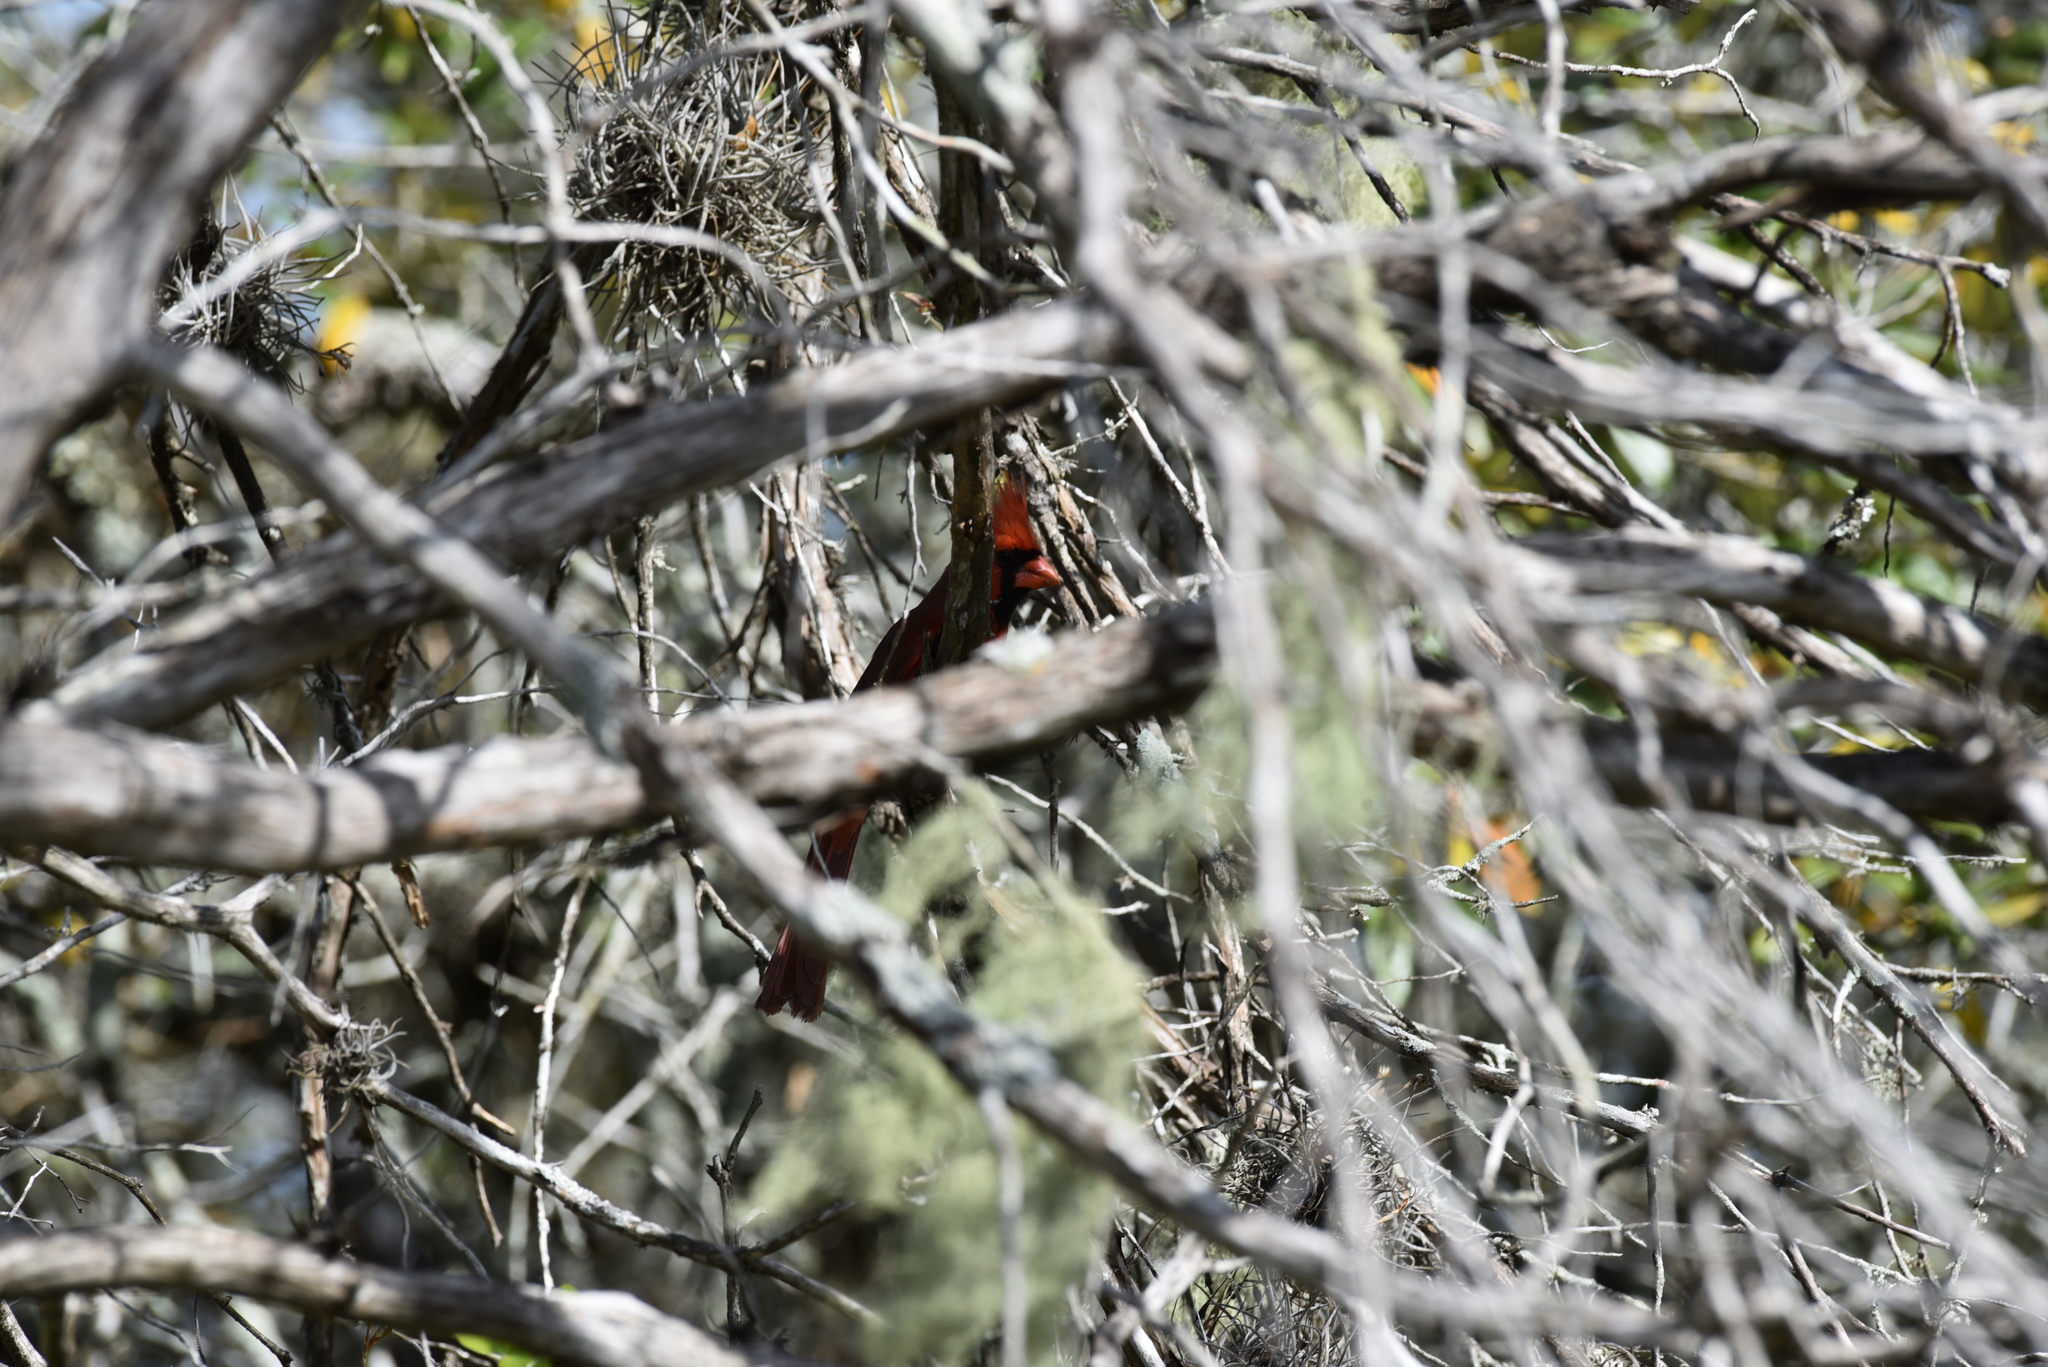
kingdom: Animalia
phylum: Chordata
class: Aves
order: Passeriformes
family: Cardinalidae
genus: Cardinalis
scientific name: Cardinalis cardinalis
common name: Northern cardinal
